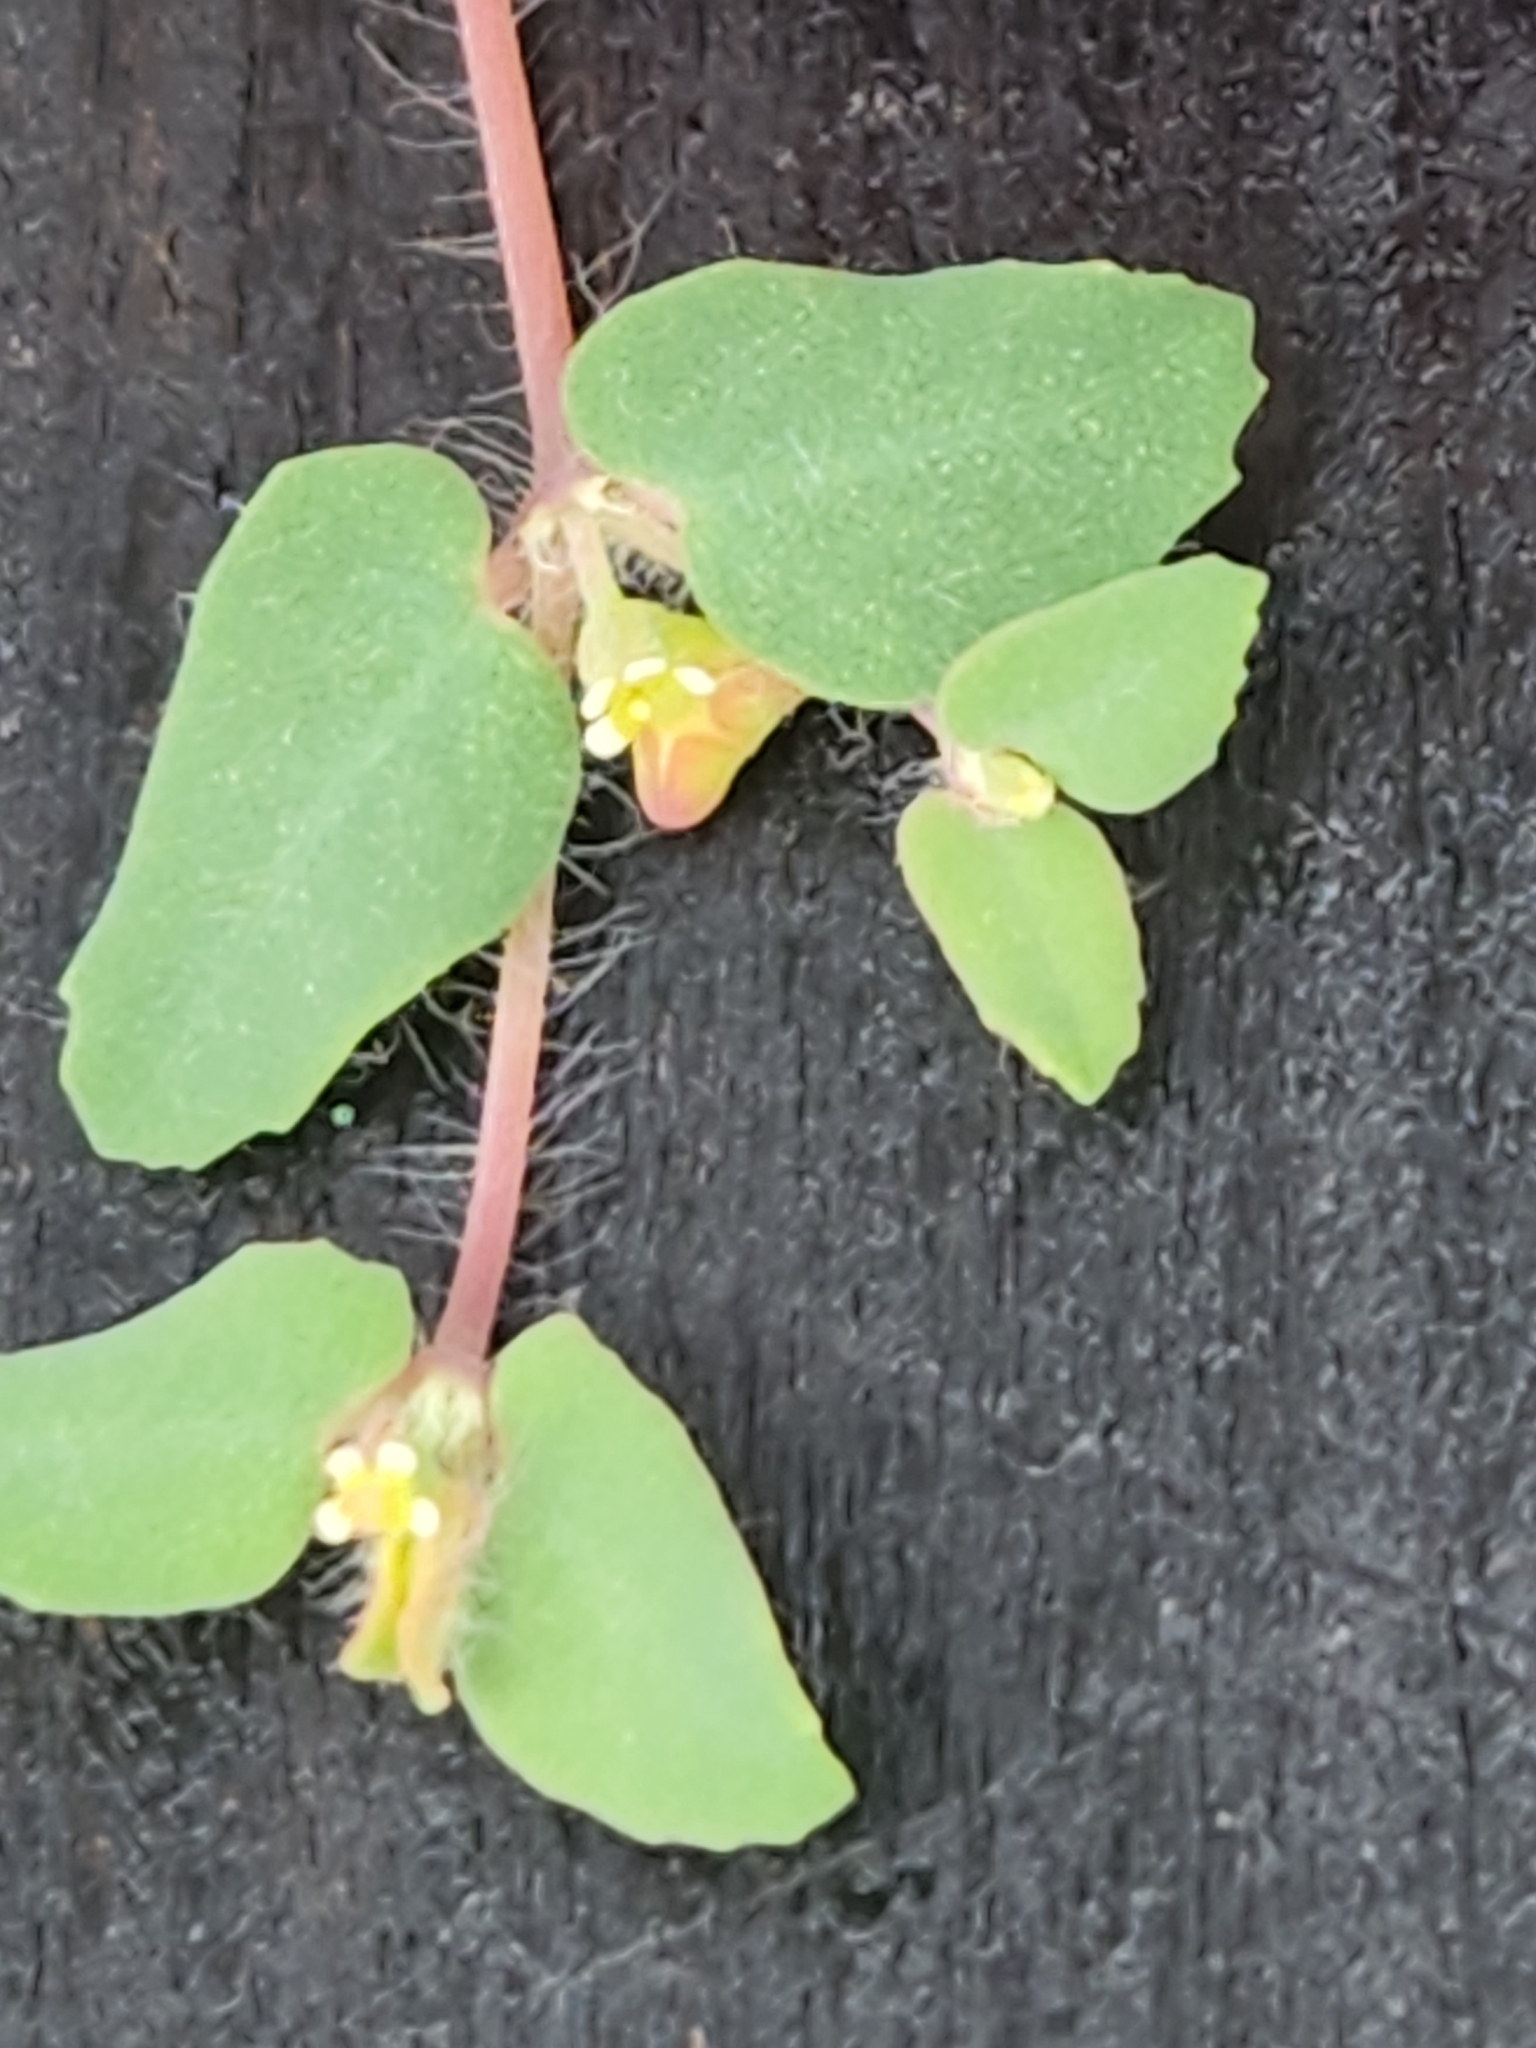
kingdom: Plantae
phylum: Tracheophyta
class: Magnoliopsida
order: Malpighiales
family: Euphorbiaceae
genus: Euphorbia
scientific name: Euphorbia villifera
